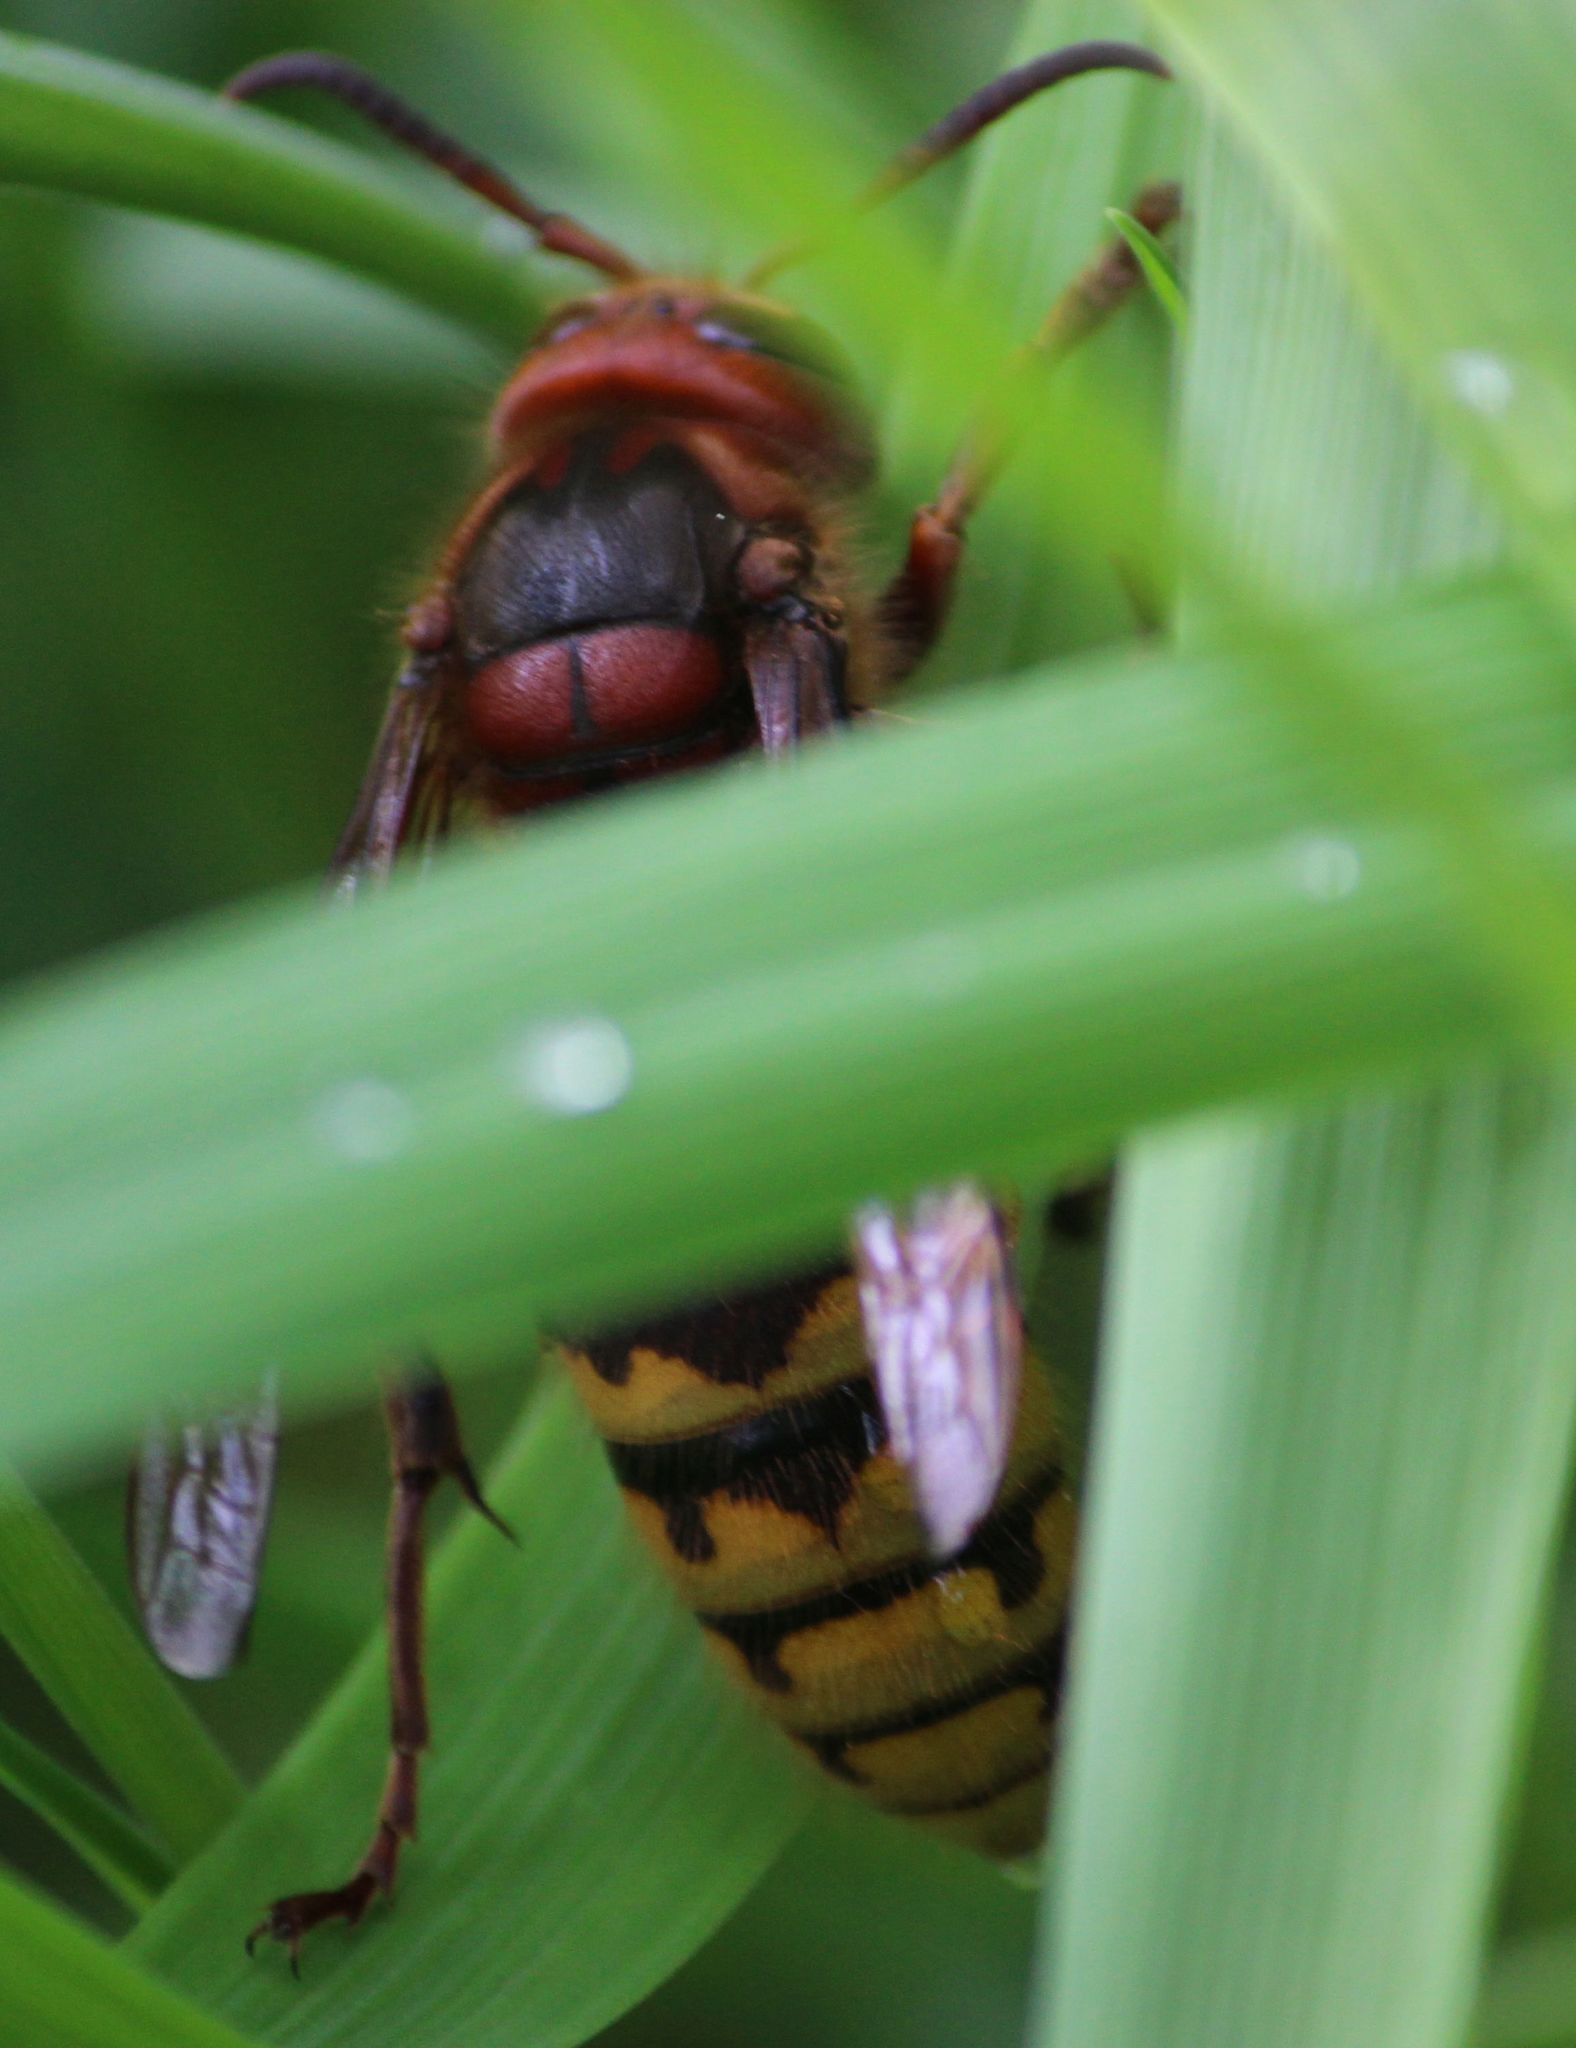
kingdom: Animalia
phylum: Arthropoda
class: Insecta
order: Hymenoptera
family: Vespidae
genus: Vespa
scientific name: Vespa crabro
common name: Hornet
